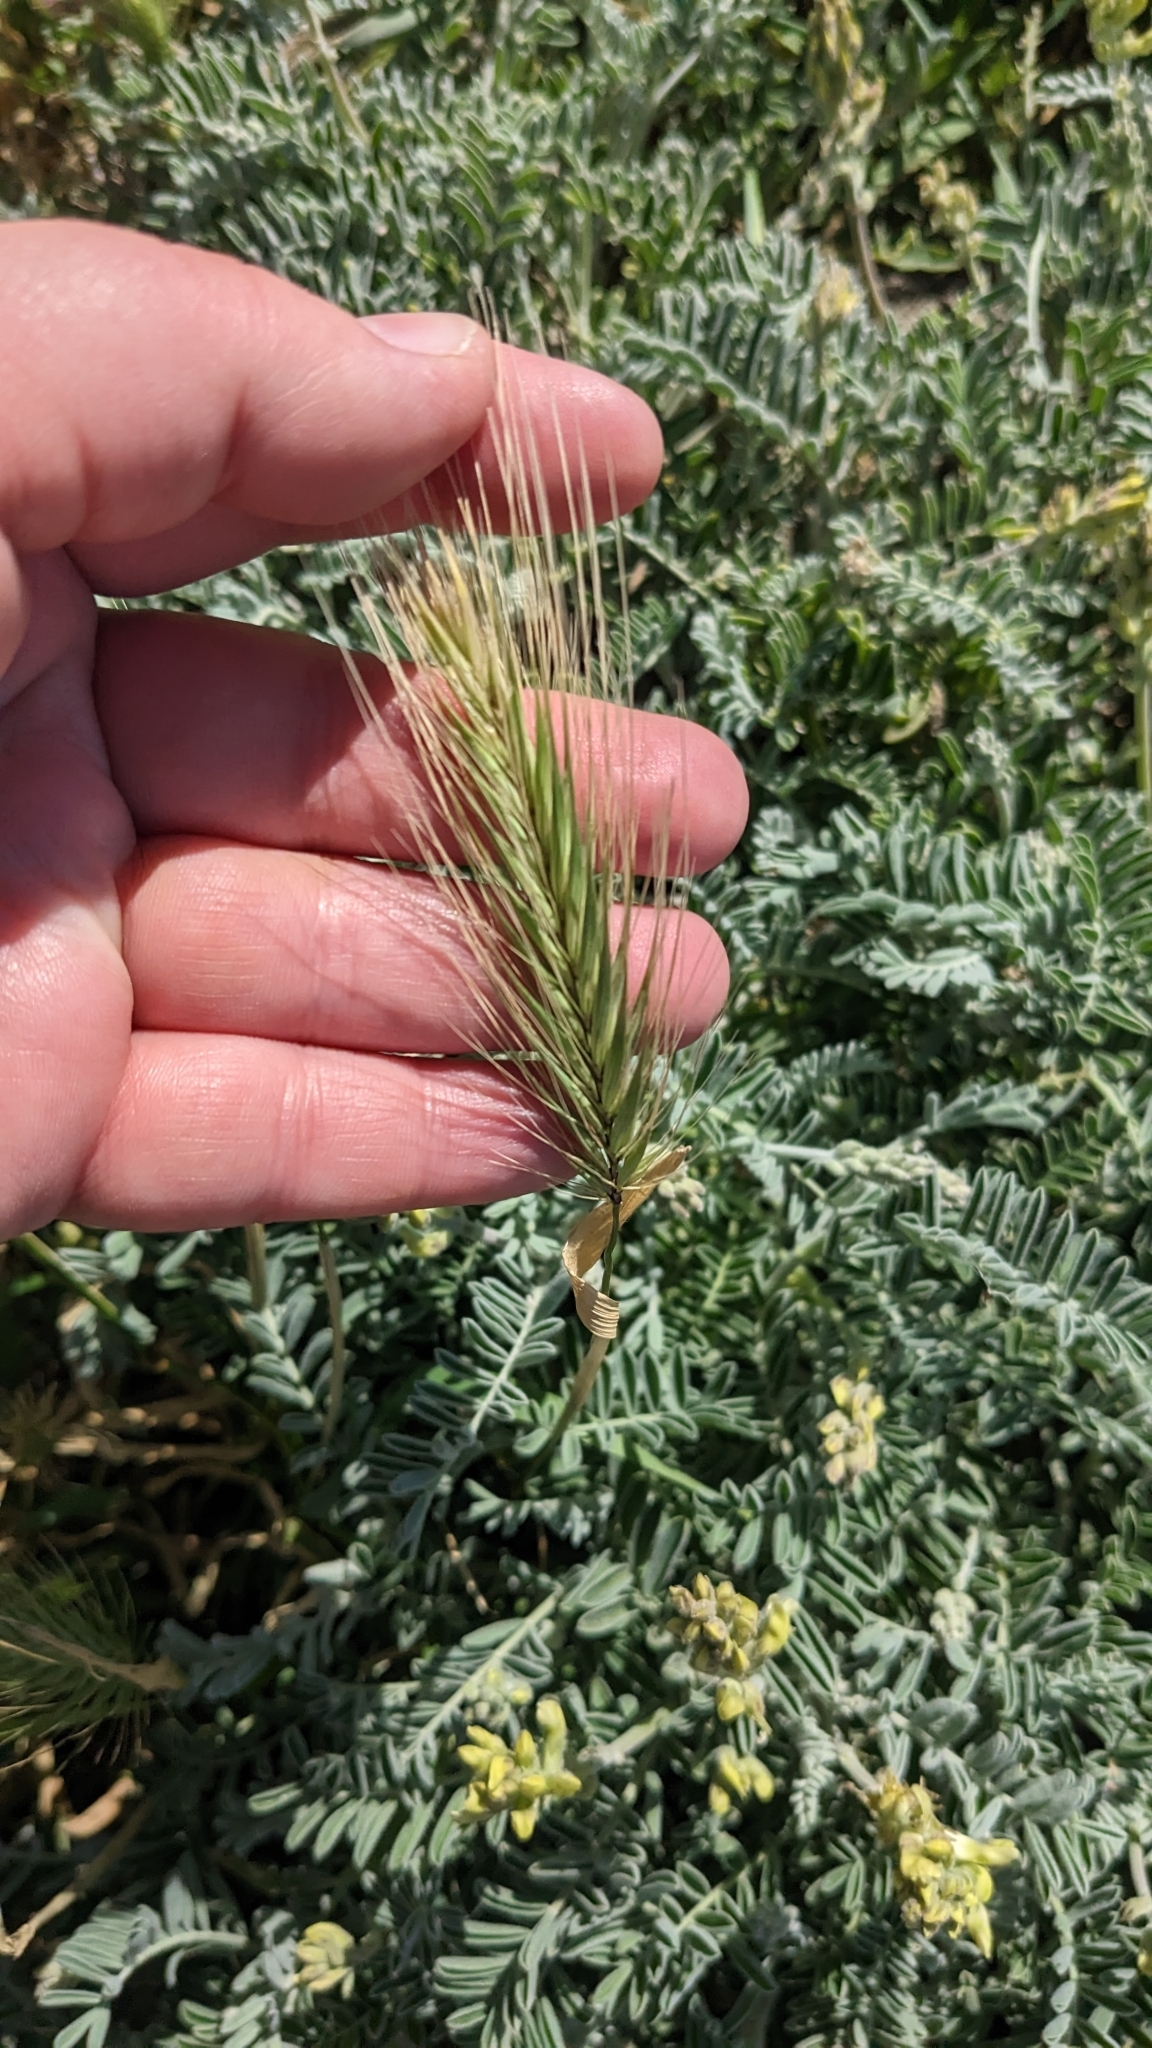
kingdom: Plantae
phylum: Tracheophyta
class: Liliopsida
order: Poales
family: Poaceae
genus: Hordeum
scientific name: Hordeum murinum
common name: Wall barley
